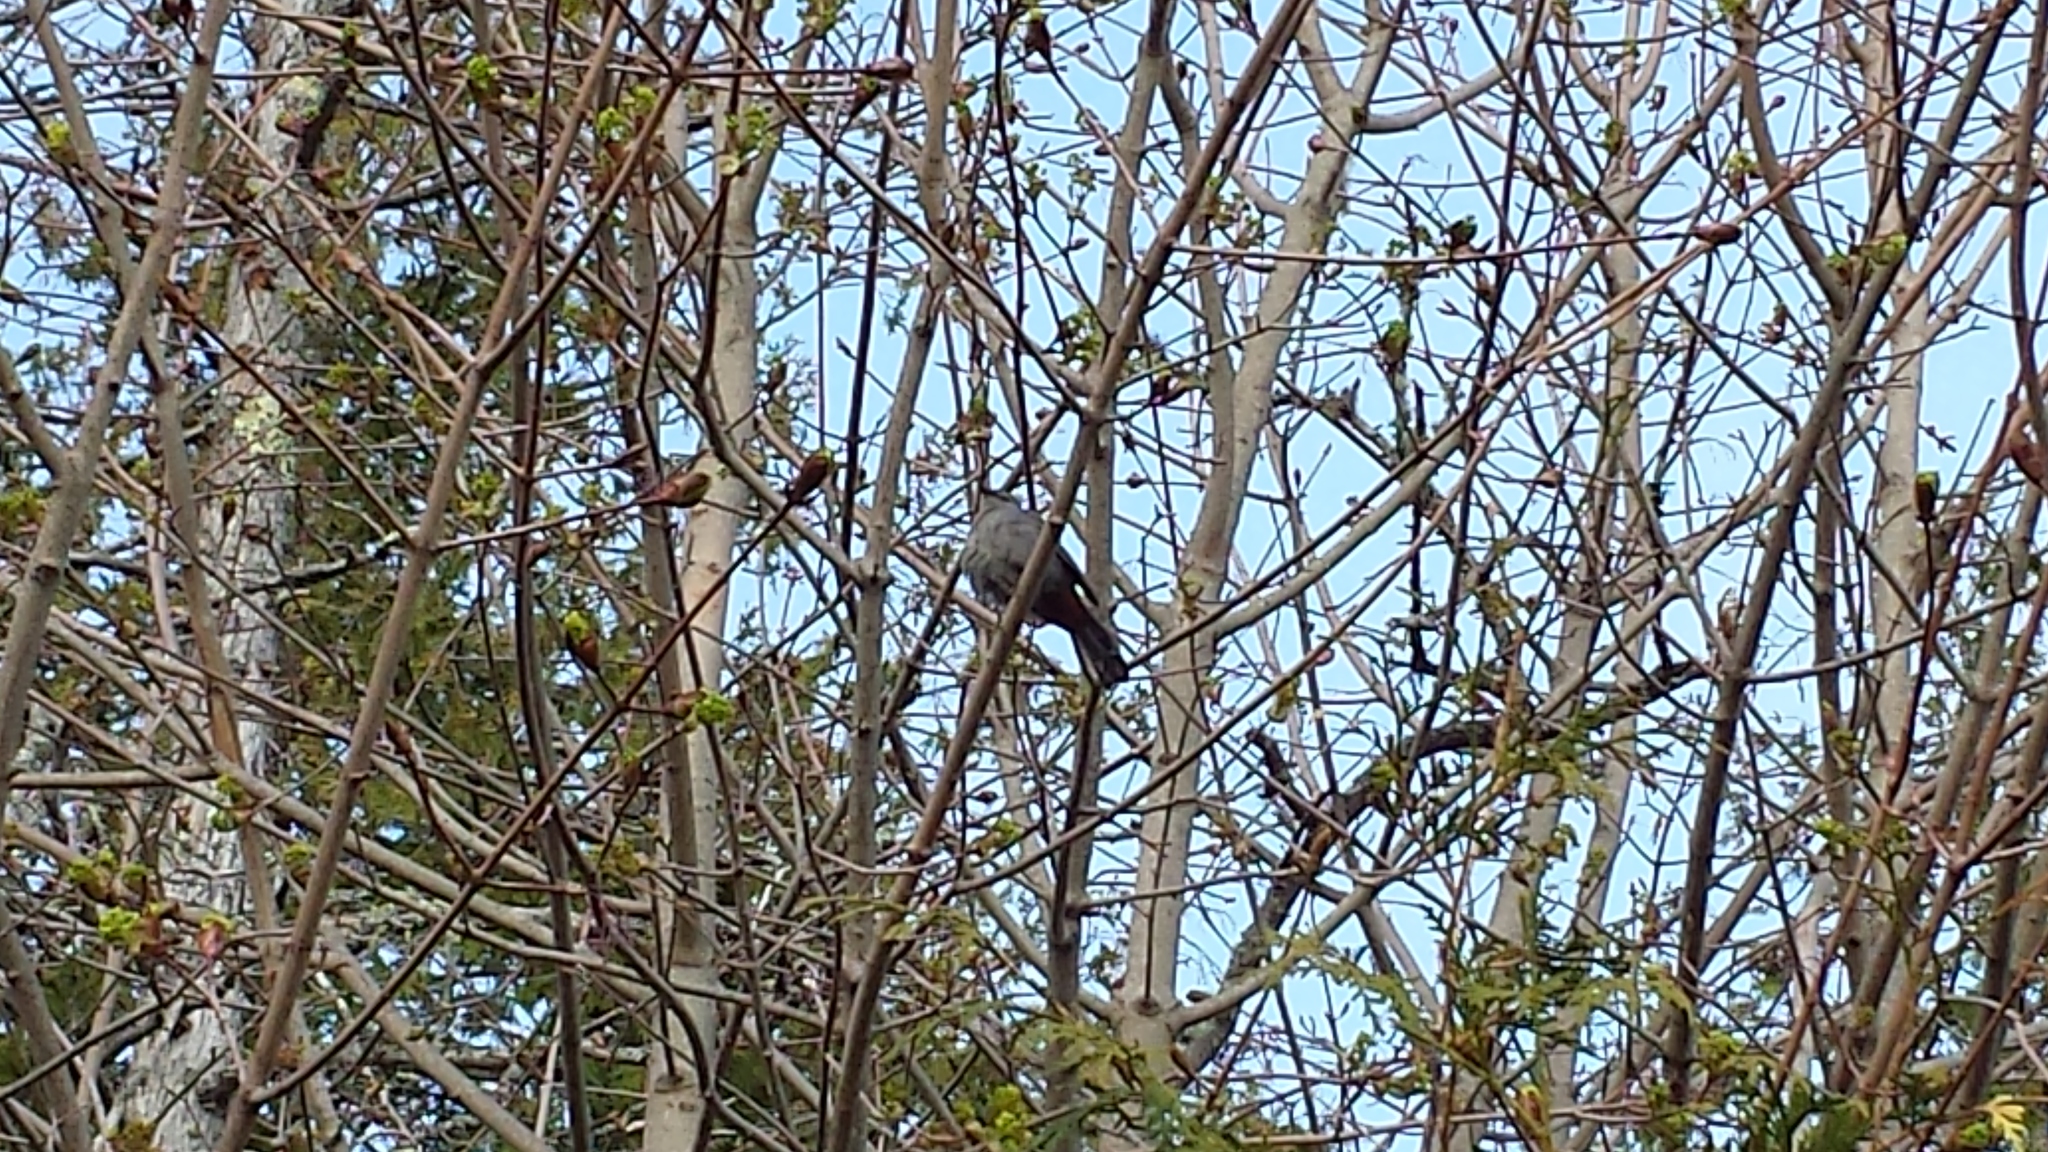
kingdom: Animalia
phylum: Chordata
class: Aves
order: Passeriformes
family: Mimidae
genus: Dumetella
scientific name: Dumetella carolinensis
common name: Gray catbird
